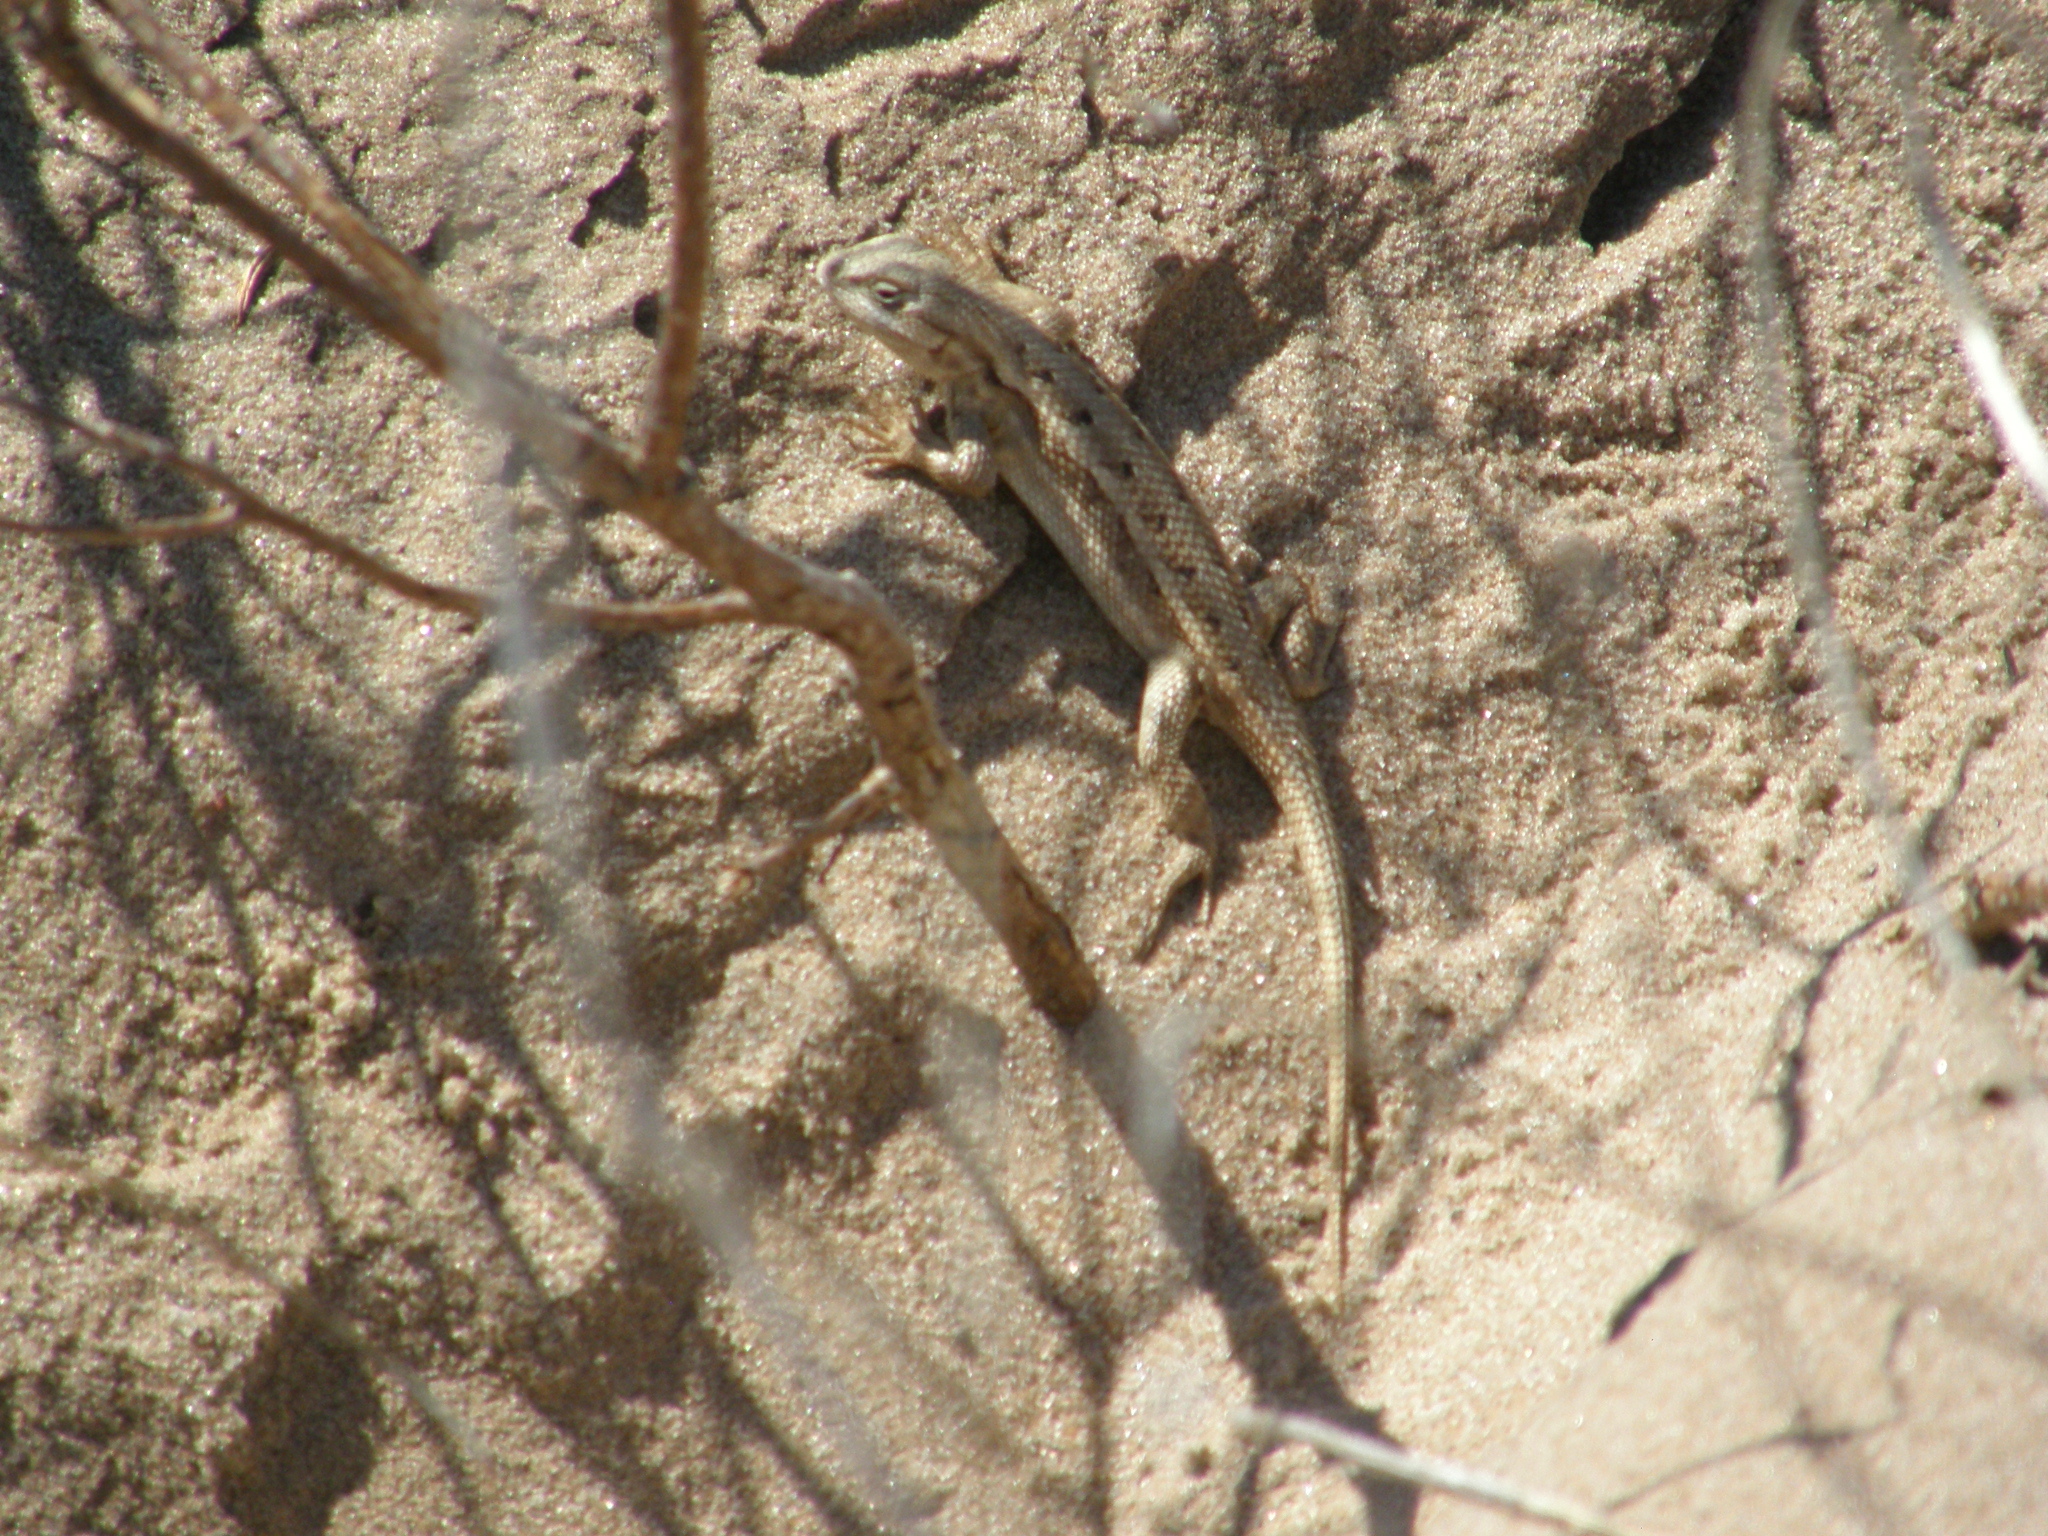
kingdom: Animalia
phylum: Chordata
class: Squamata
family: Phrynosomatidae
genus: Sceloporus
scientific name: Sceloporus consobrinus
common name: Southern prairie lizard
